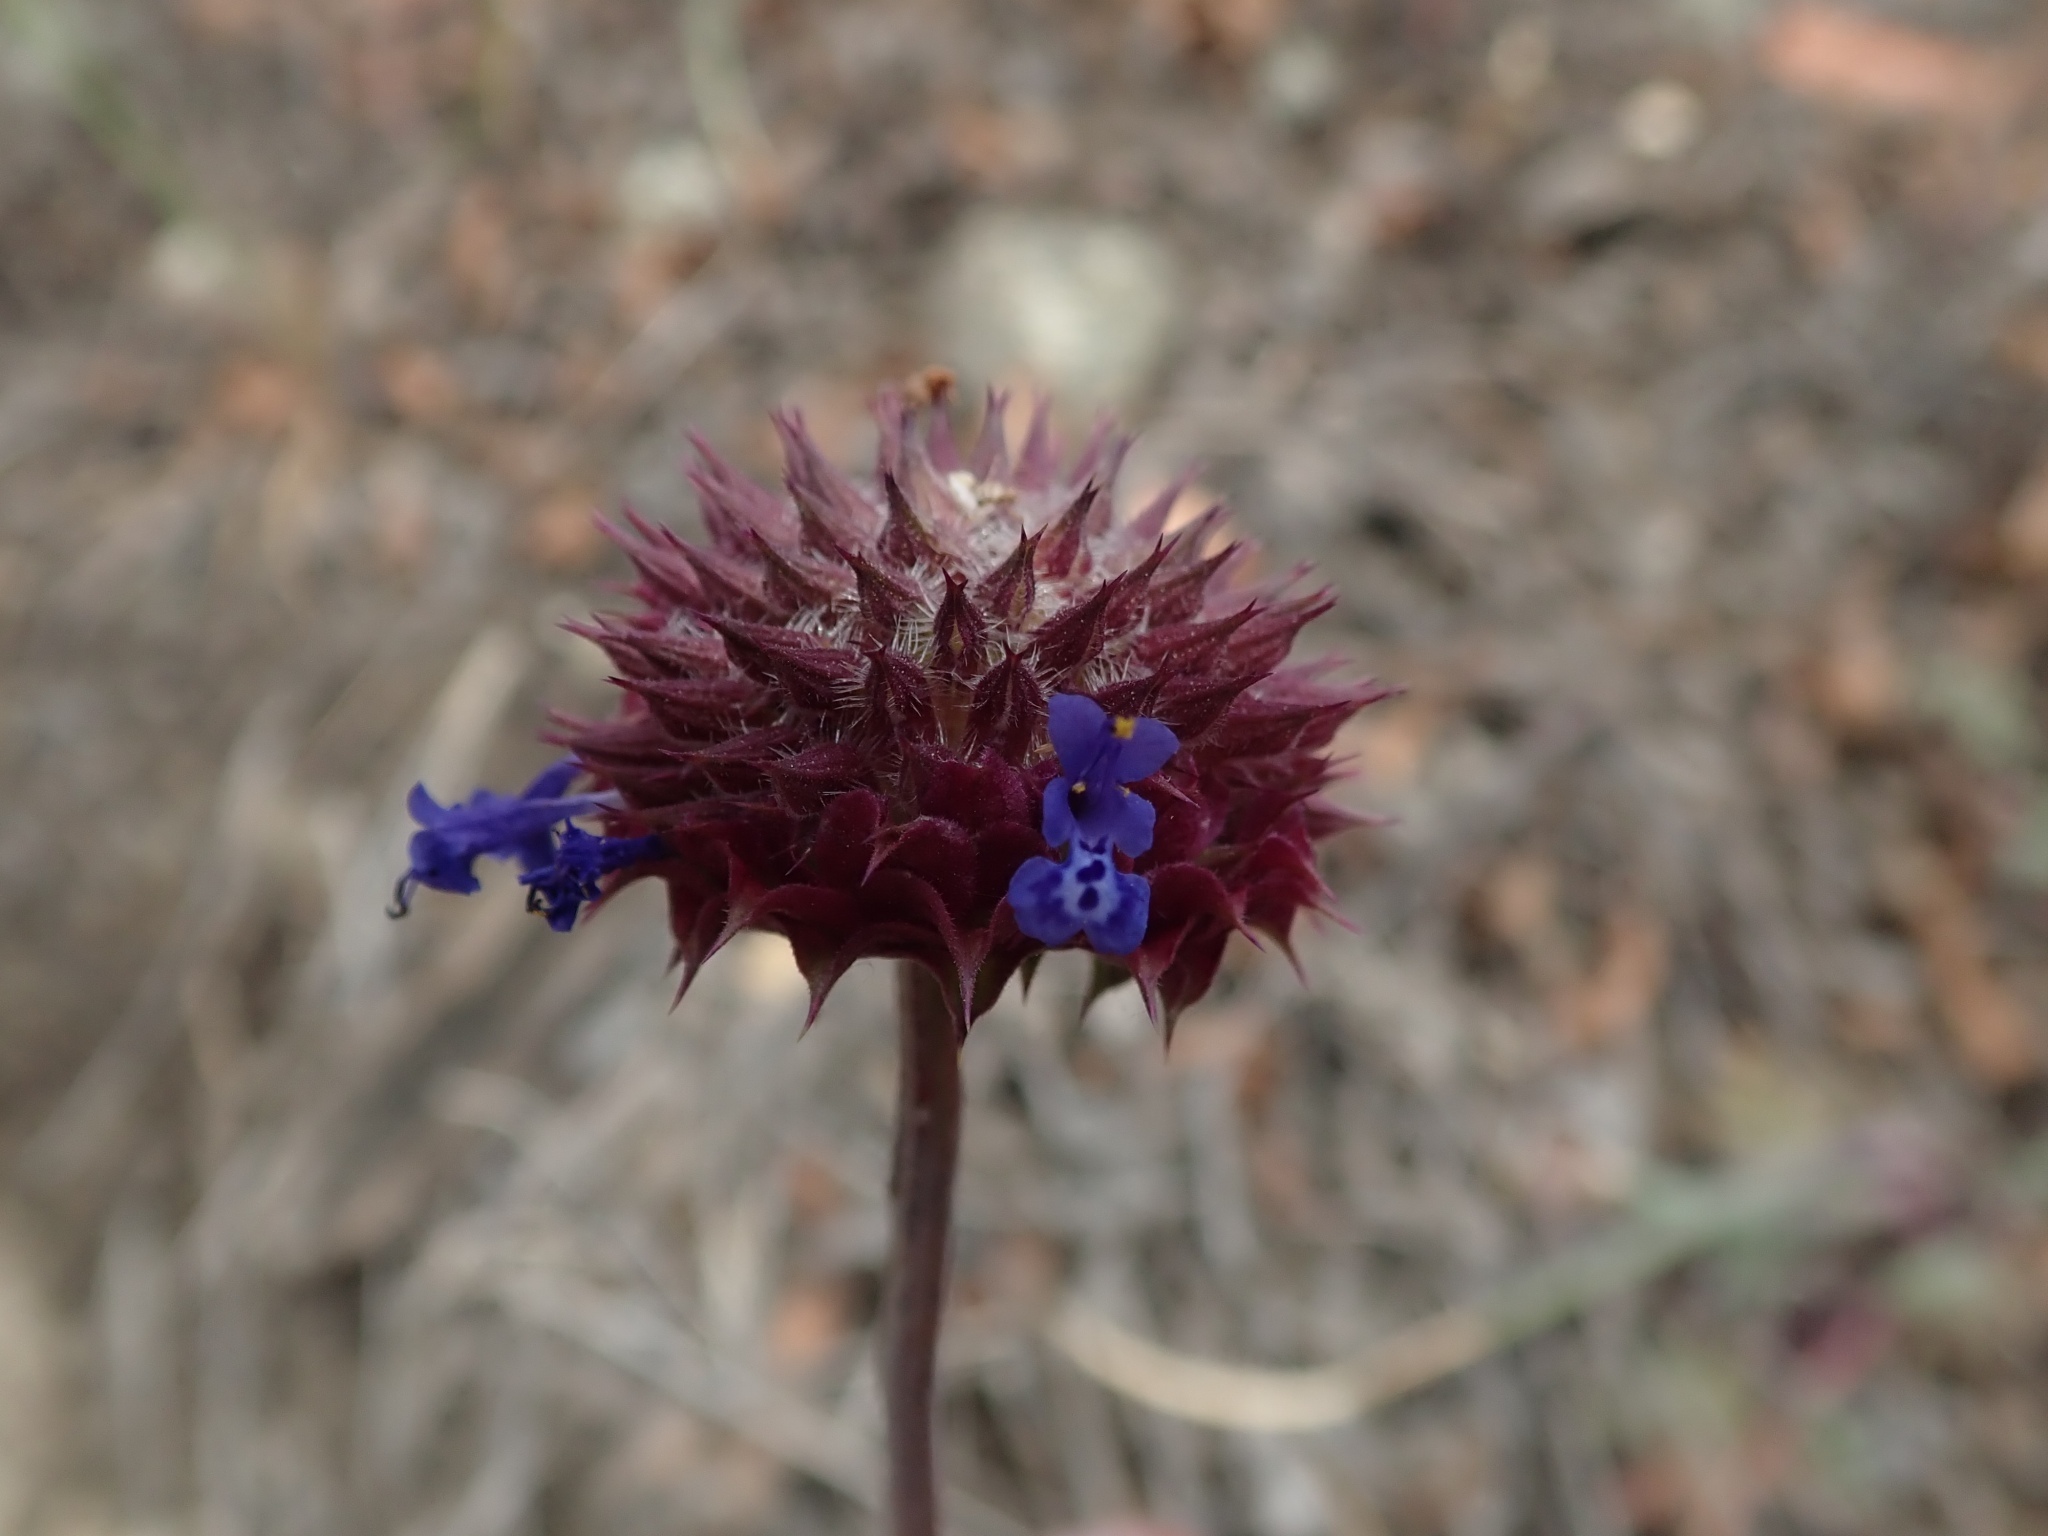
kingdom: Plantae
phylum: Tracheophyta
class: Magnoliopsida
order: Lamiales
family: Lamiaceae
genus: Salvia
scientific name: Salvia columbariae
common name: Chia
